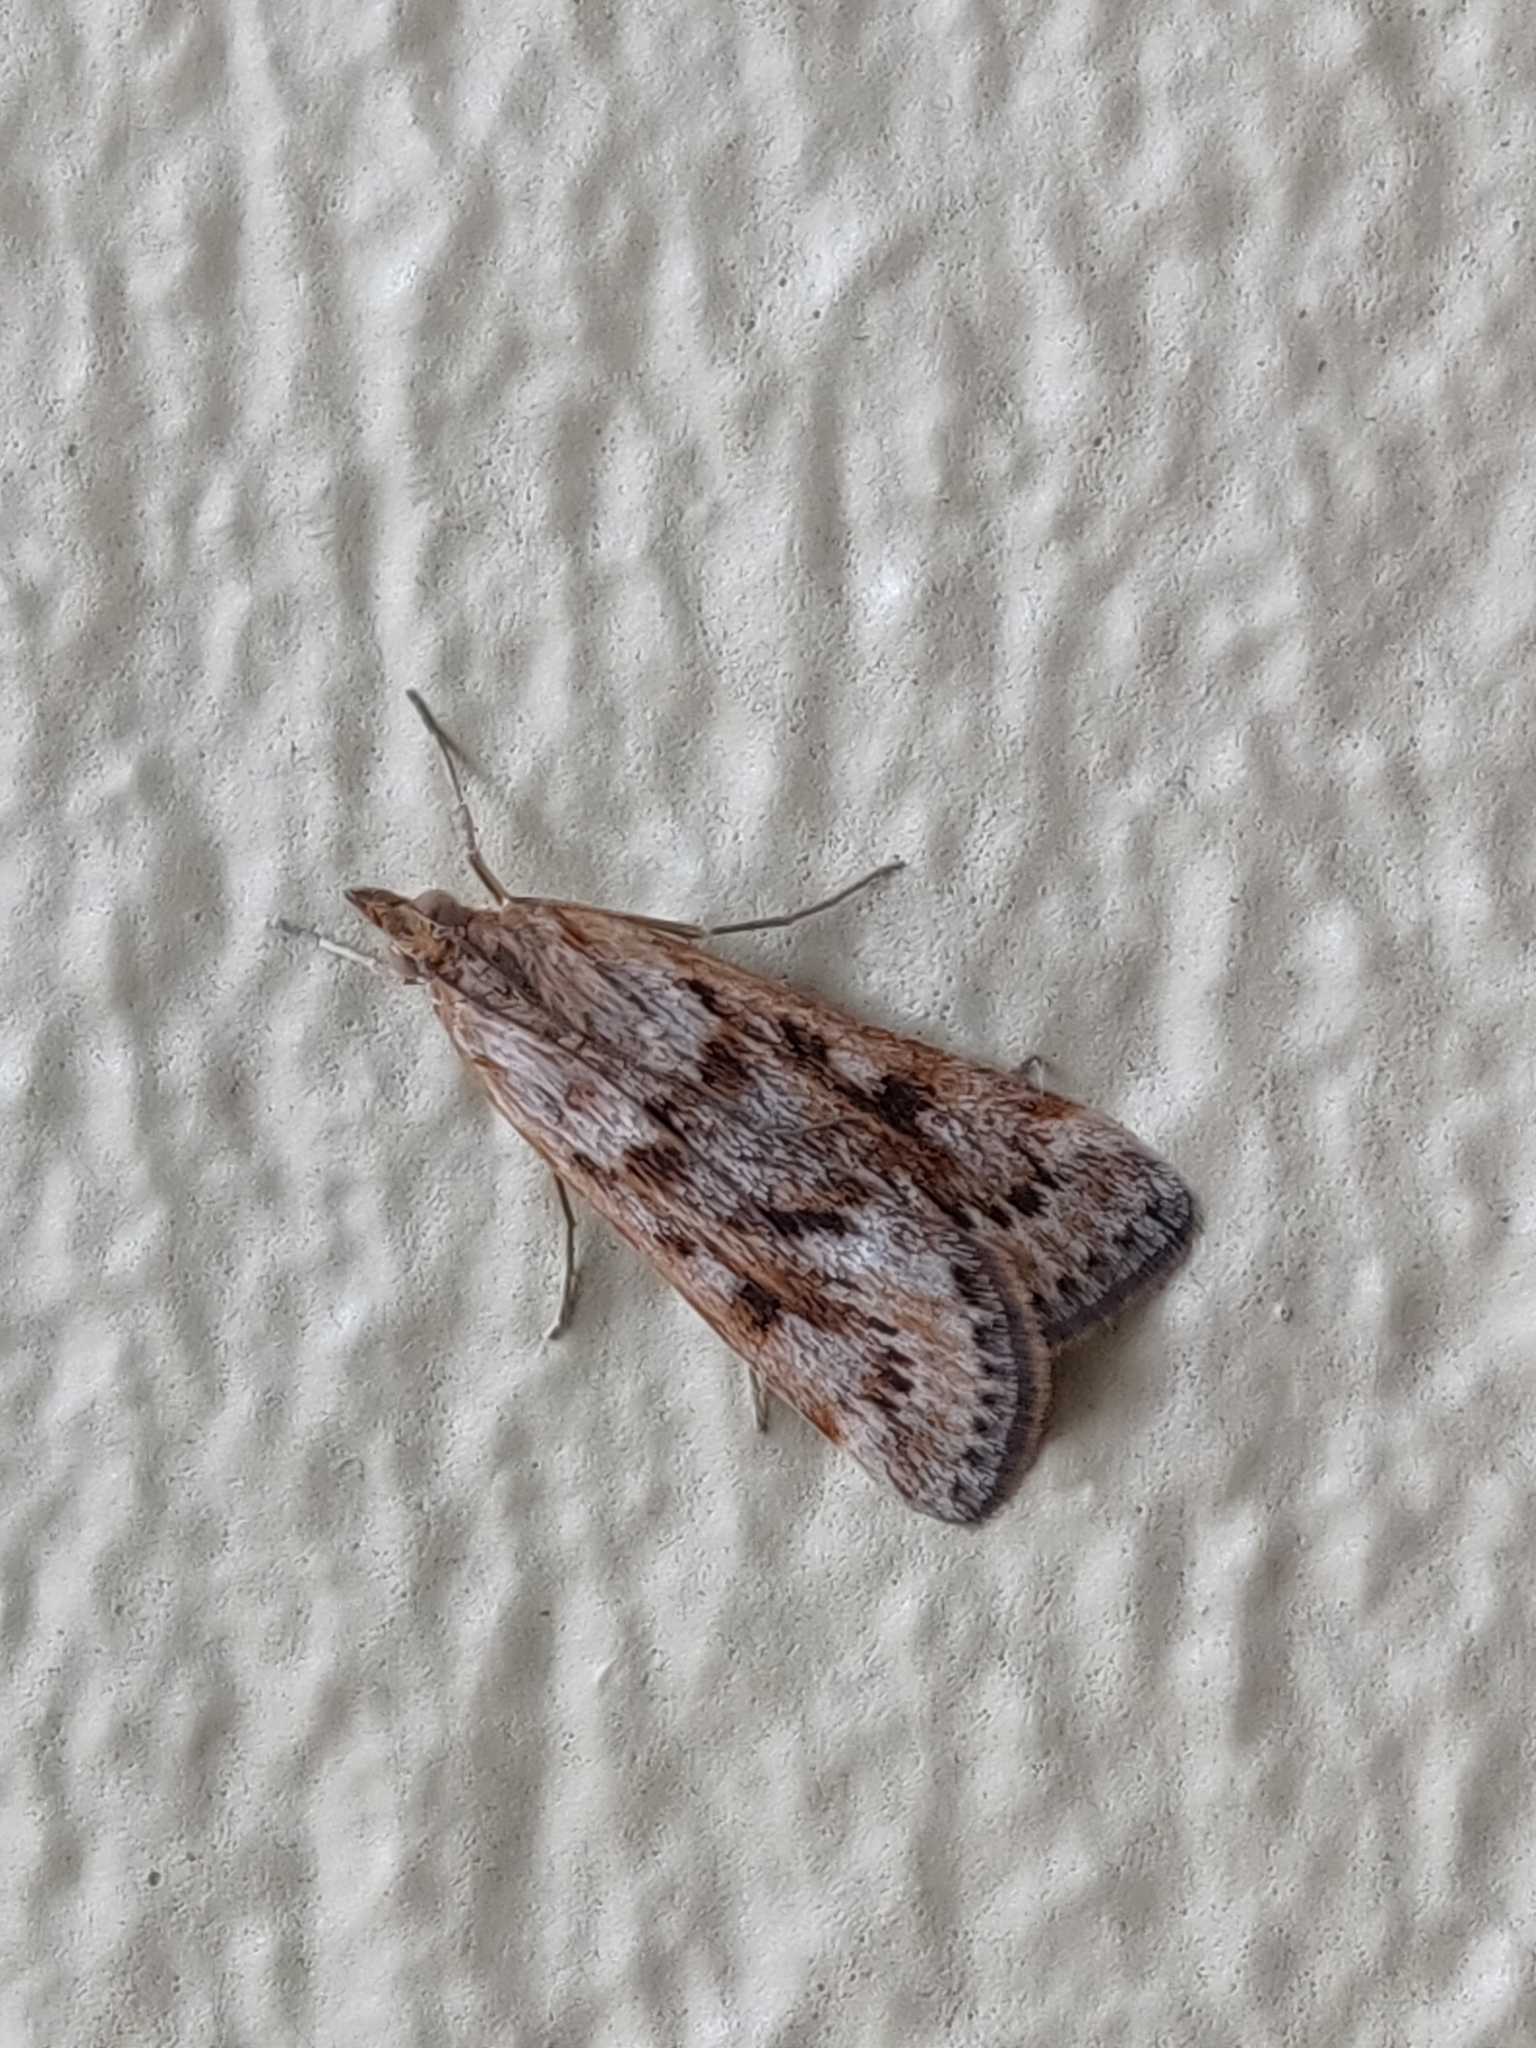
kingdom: Animalia
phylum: Arthropoda
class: Insecta
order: Lepidoptera
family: Crambidae
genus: Achyra
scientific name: Achyra affinitalis
